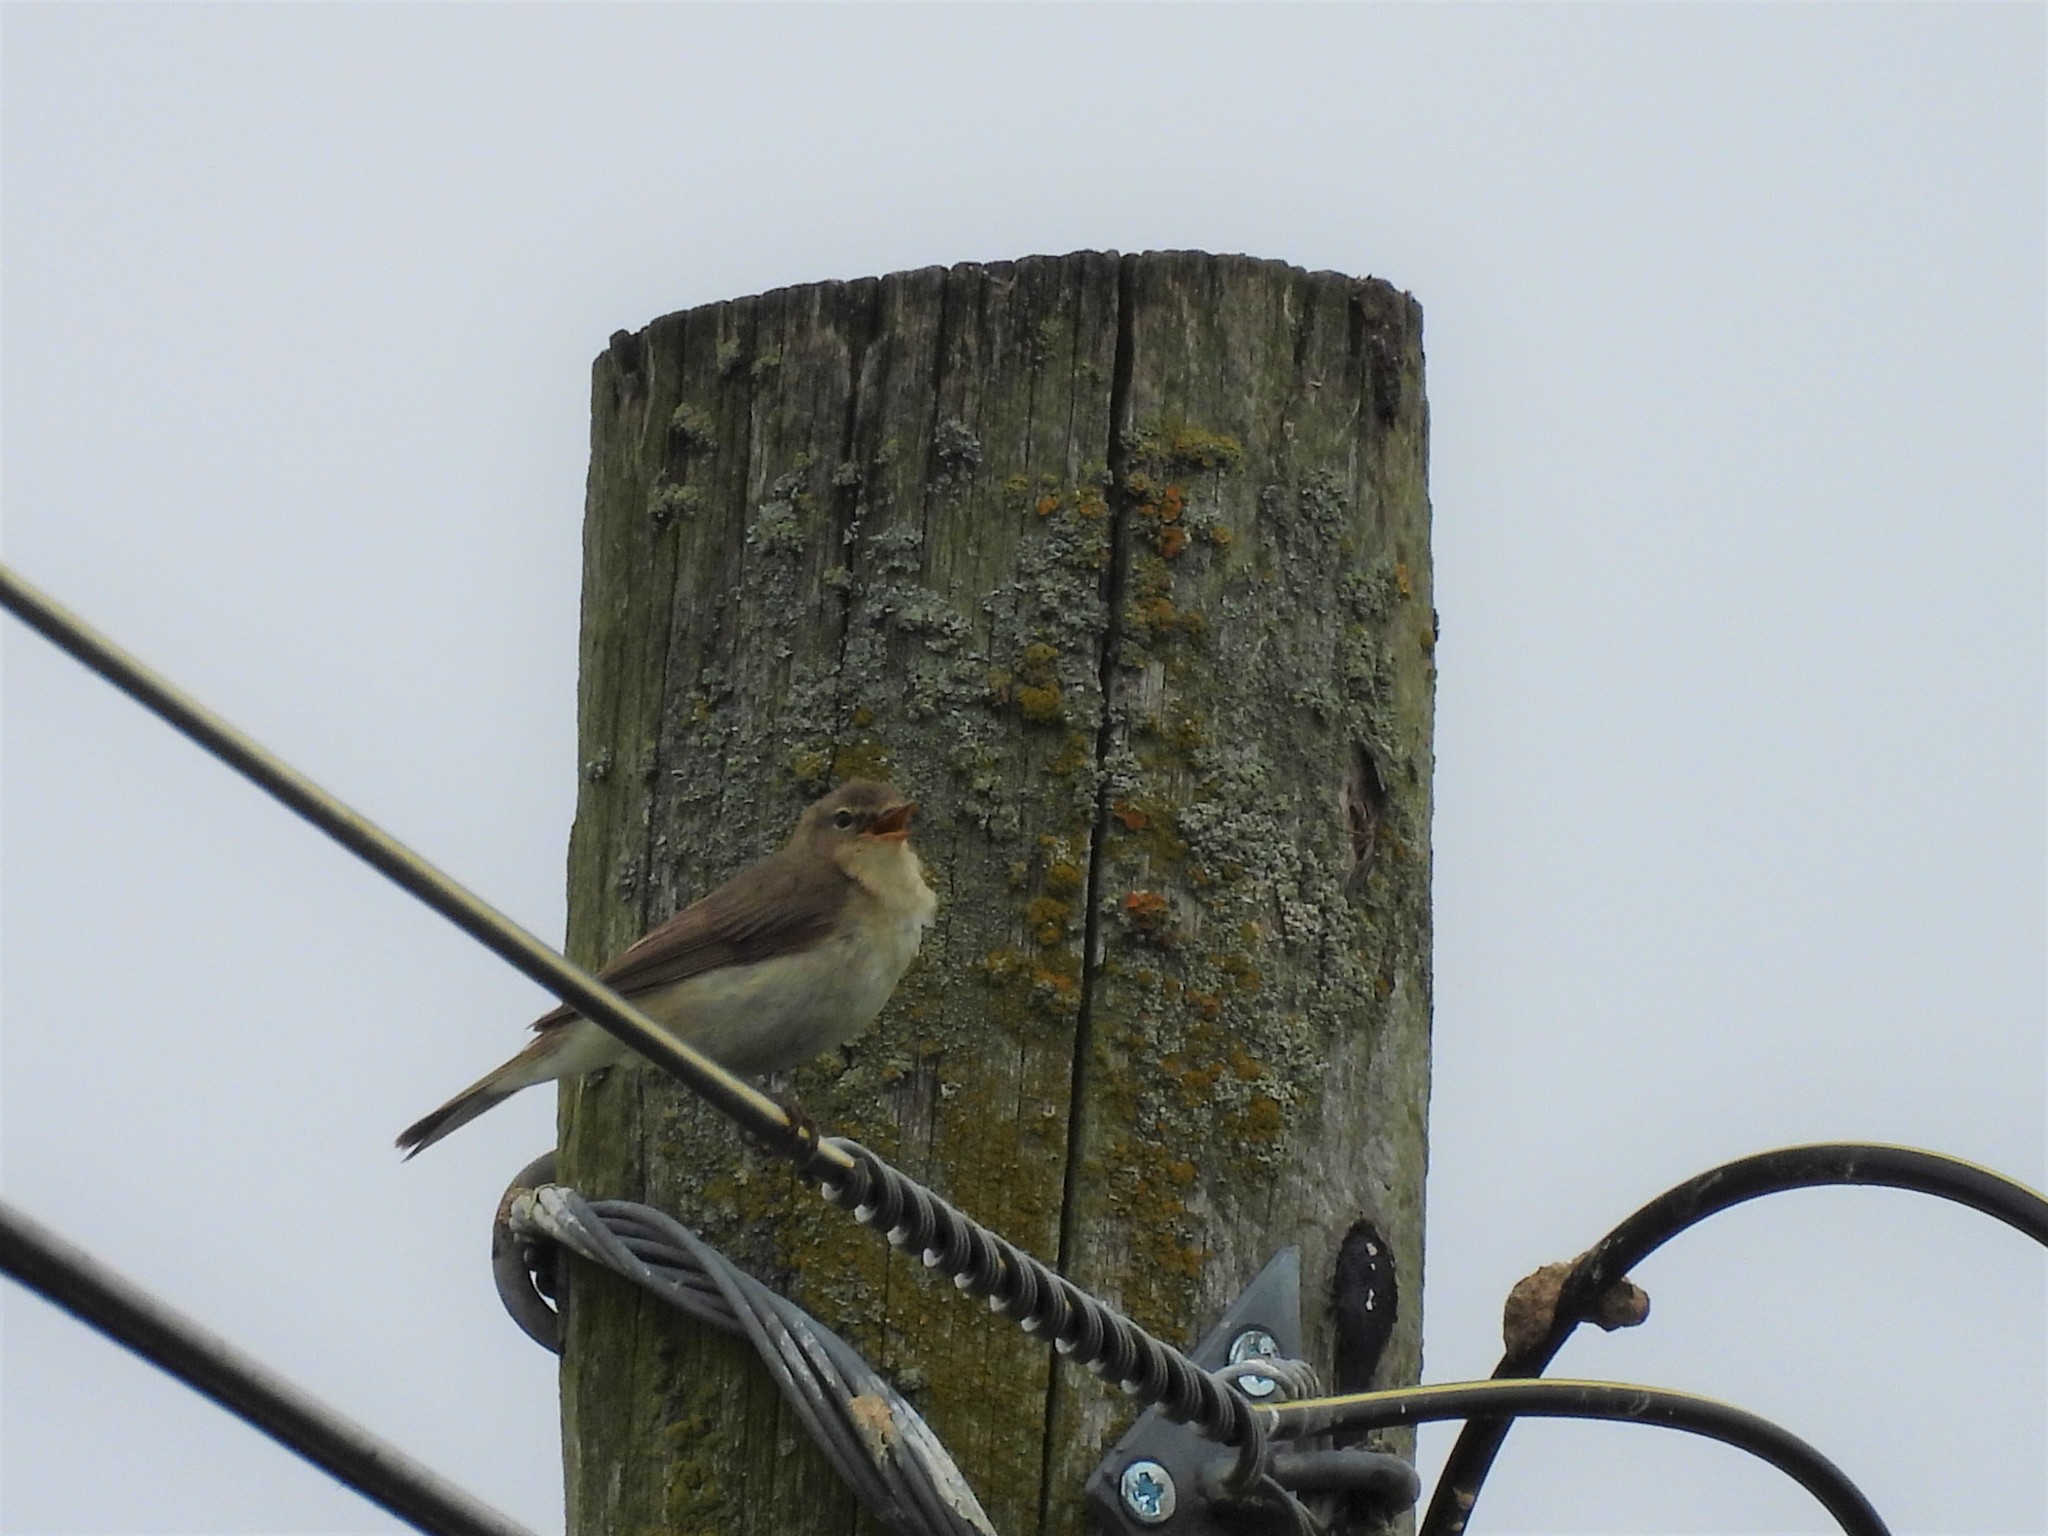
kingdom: Animalia
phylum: Chordata
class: Aves
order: Passeriformes
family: Phylloscopidae
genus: Phylloscopus
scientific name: Phylloscopus collybita
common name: Common chiffchaff
